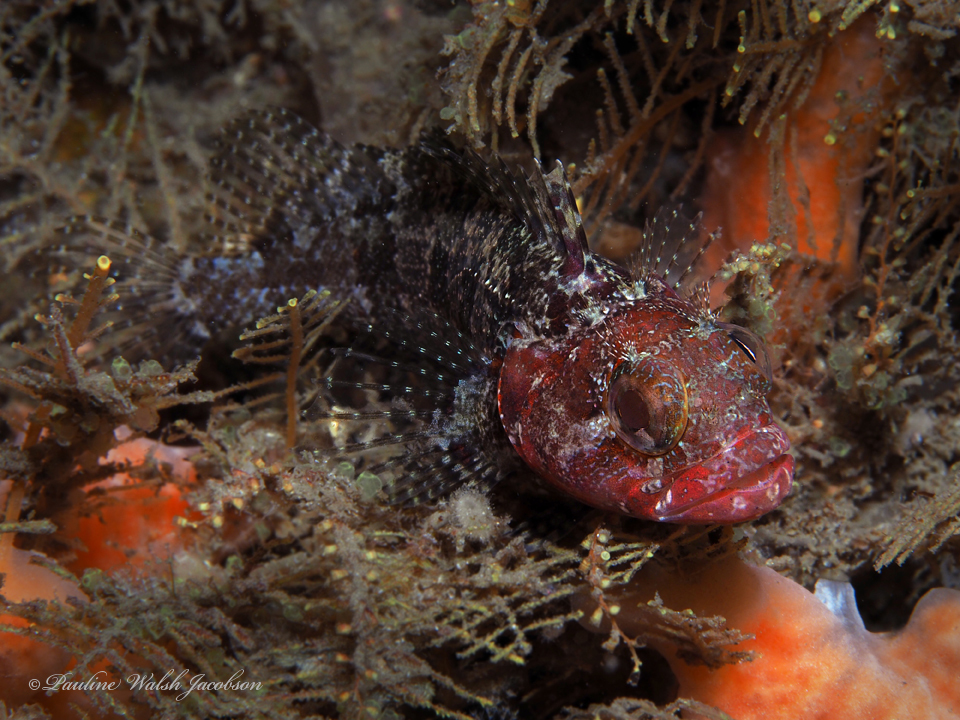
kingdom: Animalia
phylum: Chordata
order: Perciformes
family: Labrisomidae
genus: Gobioclinus
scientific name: Gobioclinus kalisherae
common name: Downy blenny
